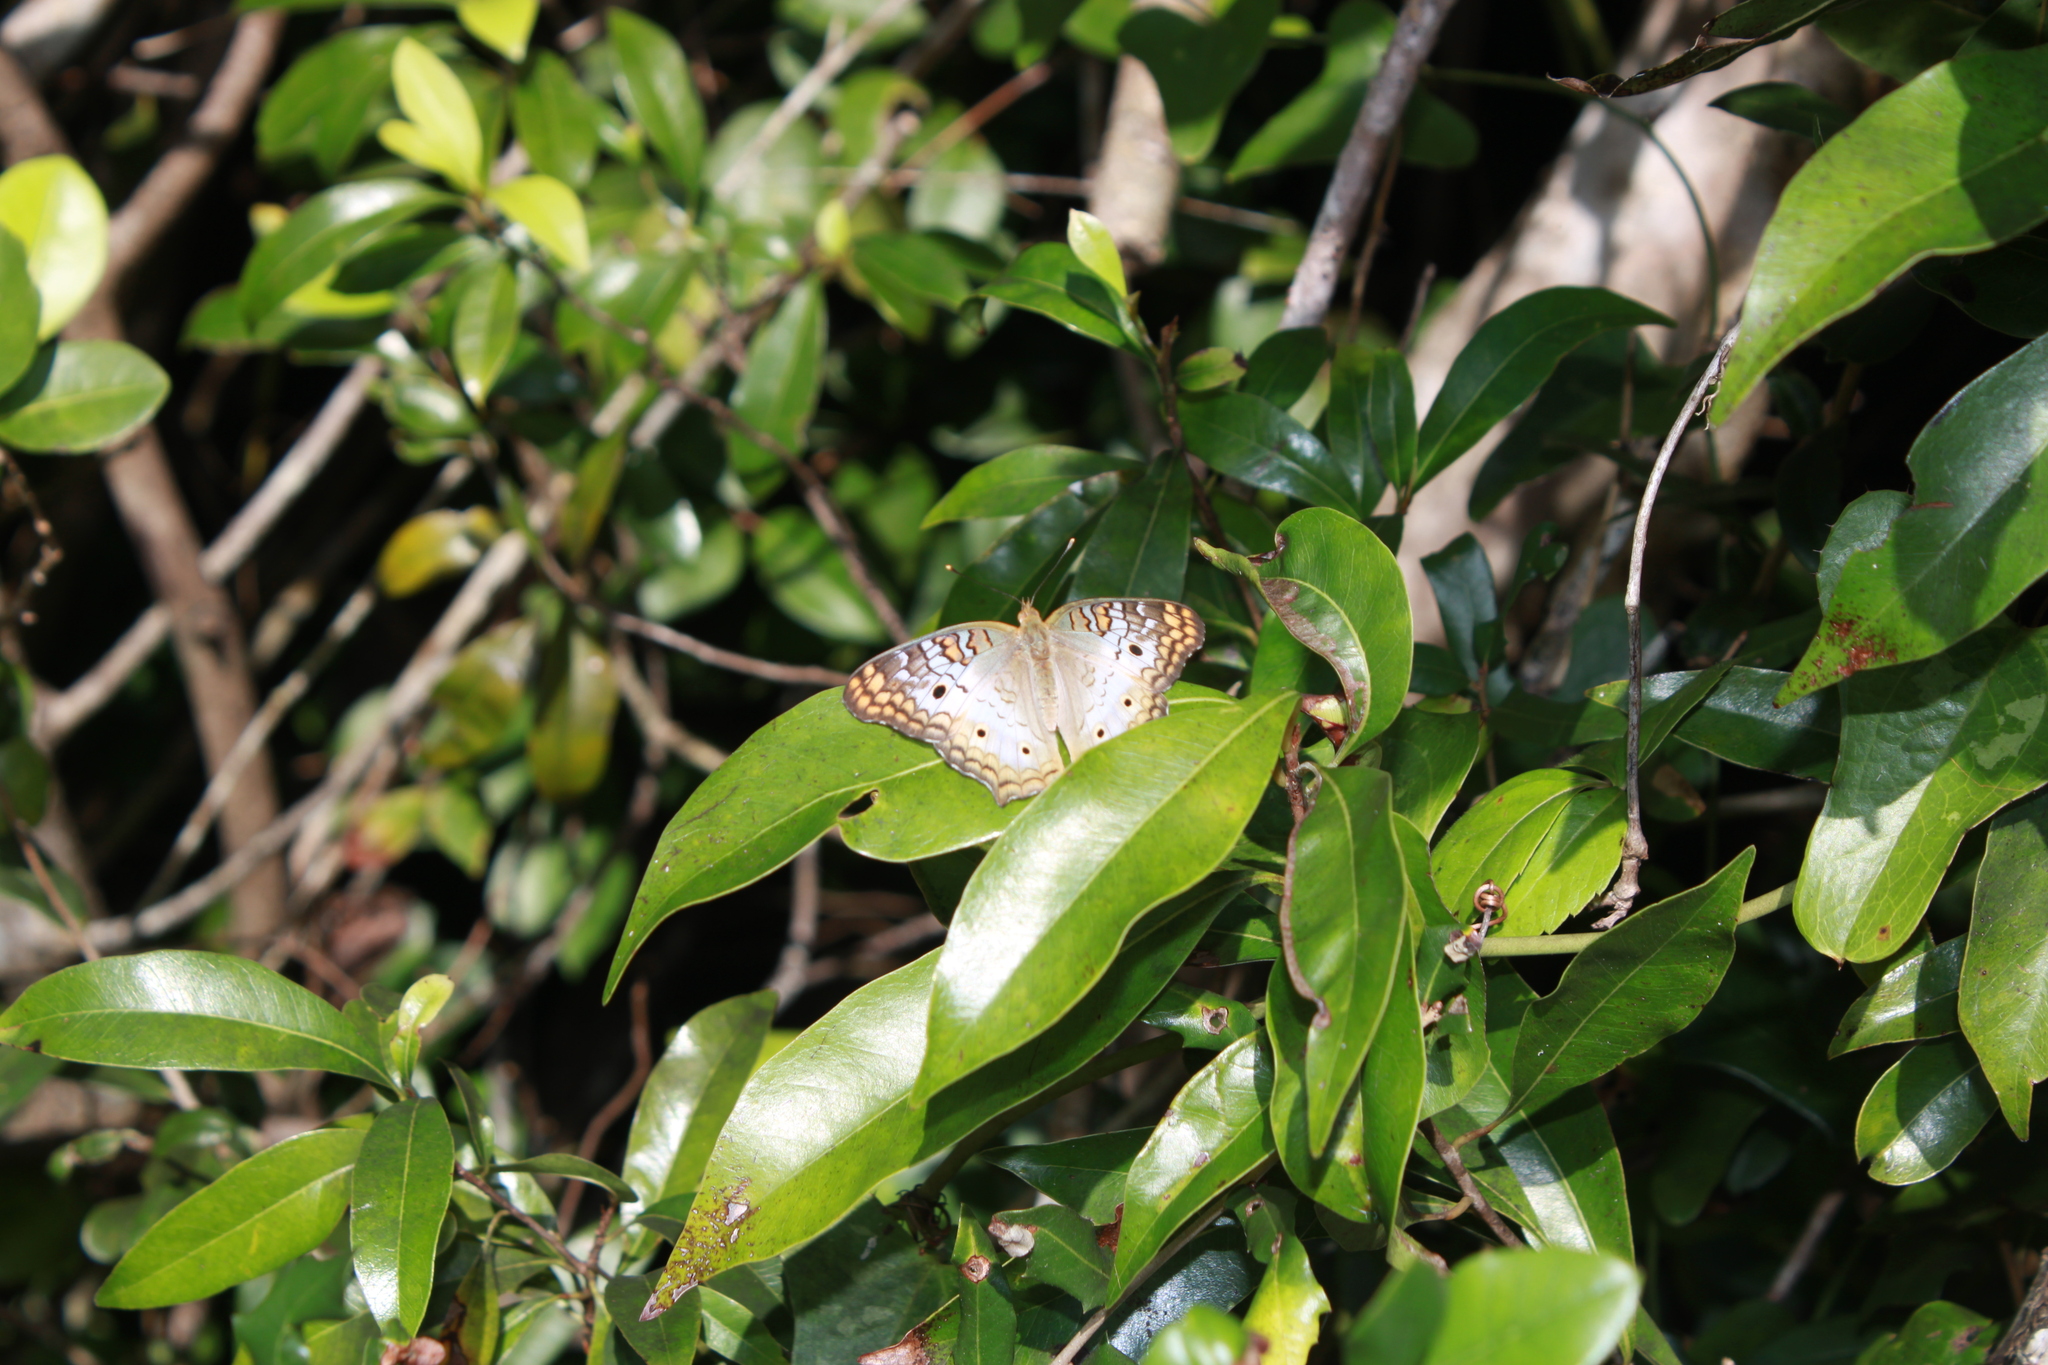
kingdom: Animalia
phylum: Arthropoda
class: Insecta
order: Lepidoptera
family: Nymphalidae
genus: Anartia
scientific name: Anartia jatrophae
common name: White peacock
